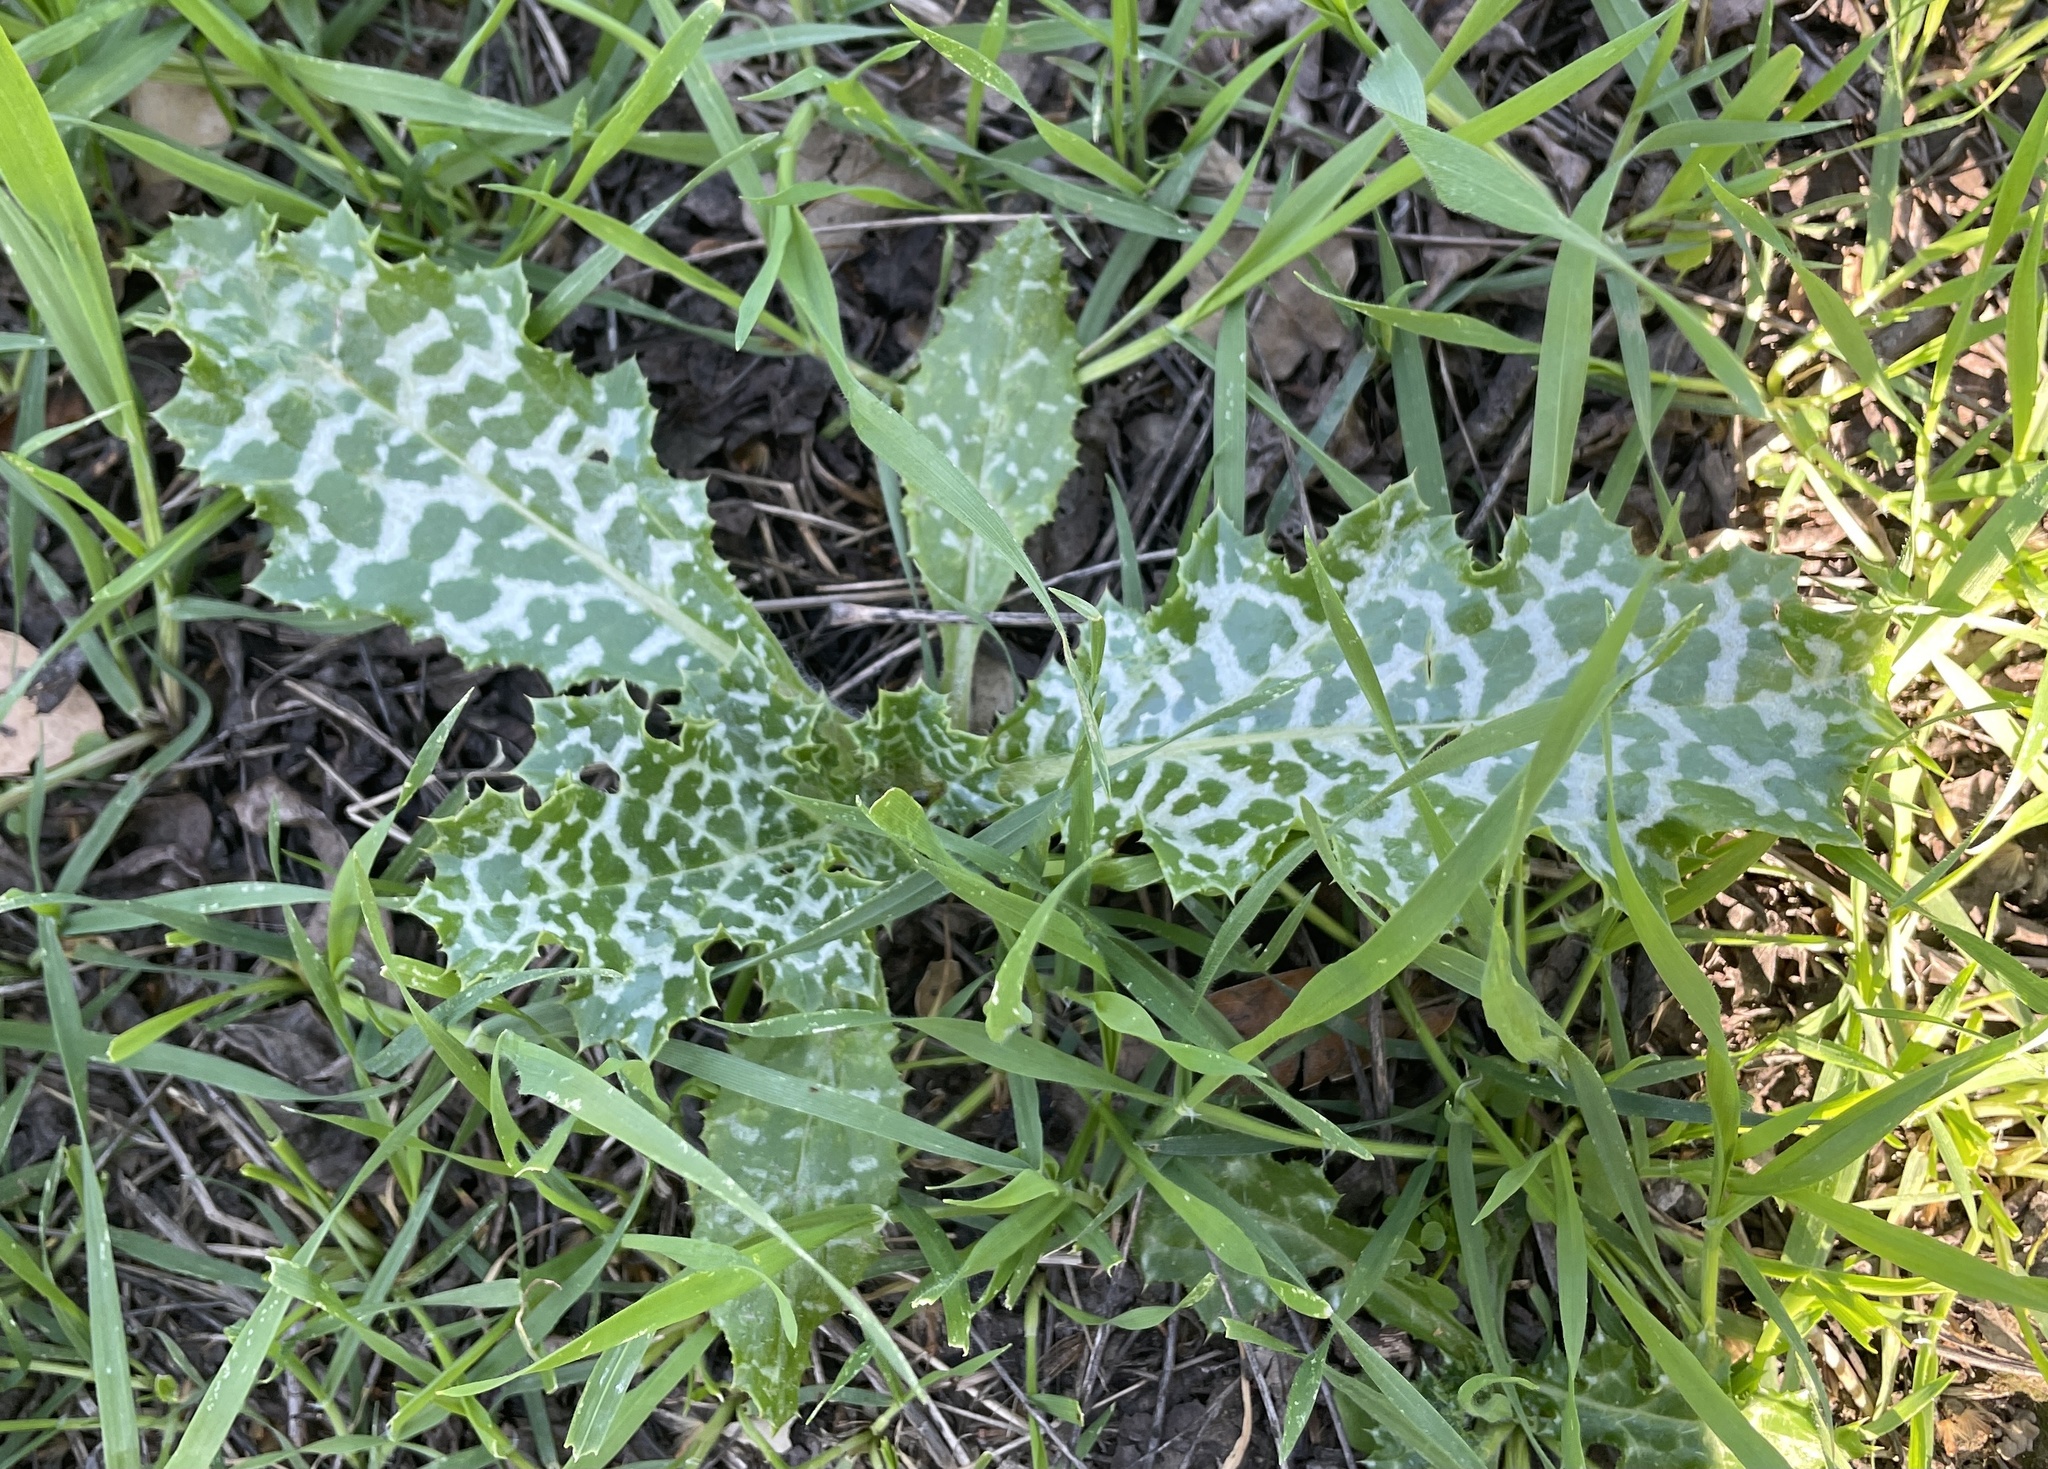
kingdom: Plantae
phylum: Tracheophyta
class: Magnoliopsida
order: Asterales
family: Asteraceae
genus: Silybum
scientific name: Silybum marianum
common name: Milk thistle
